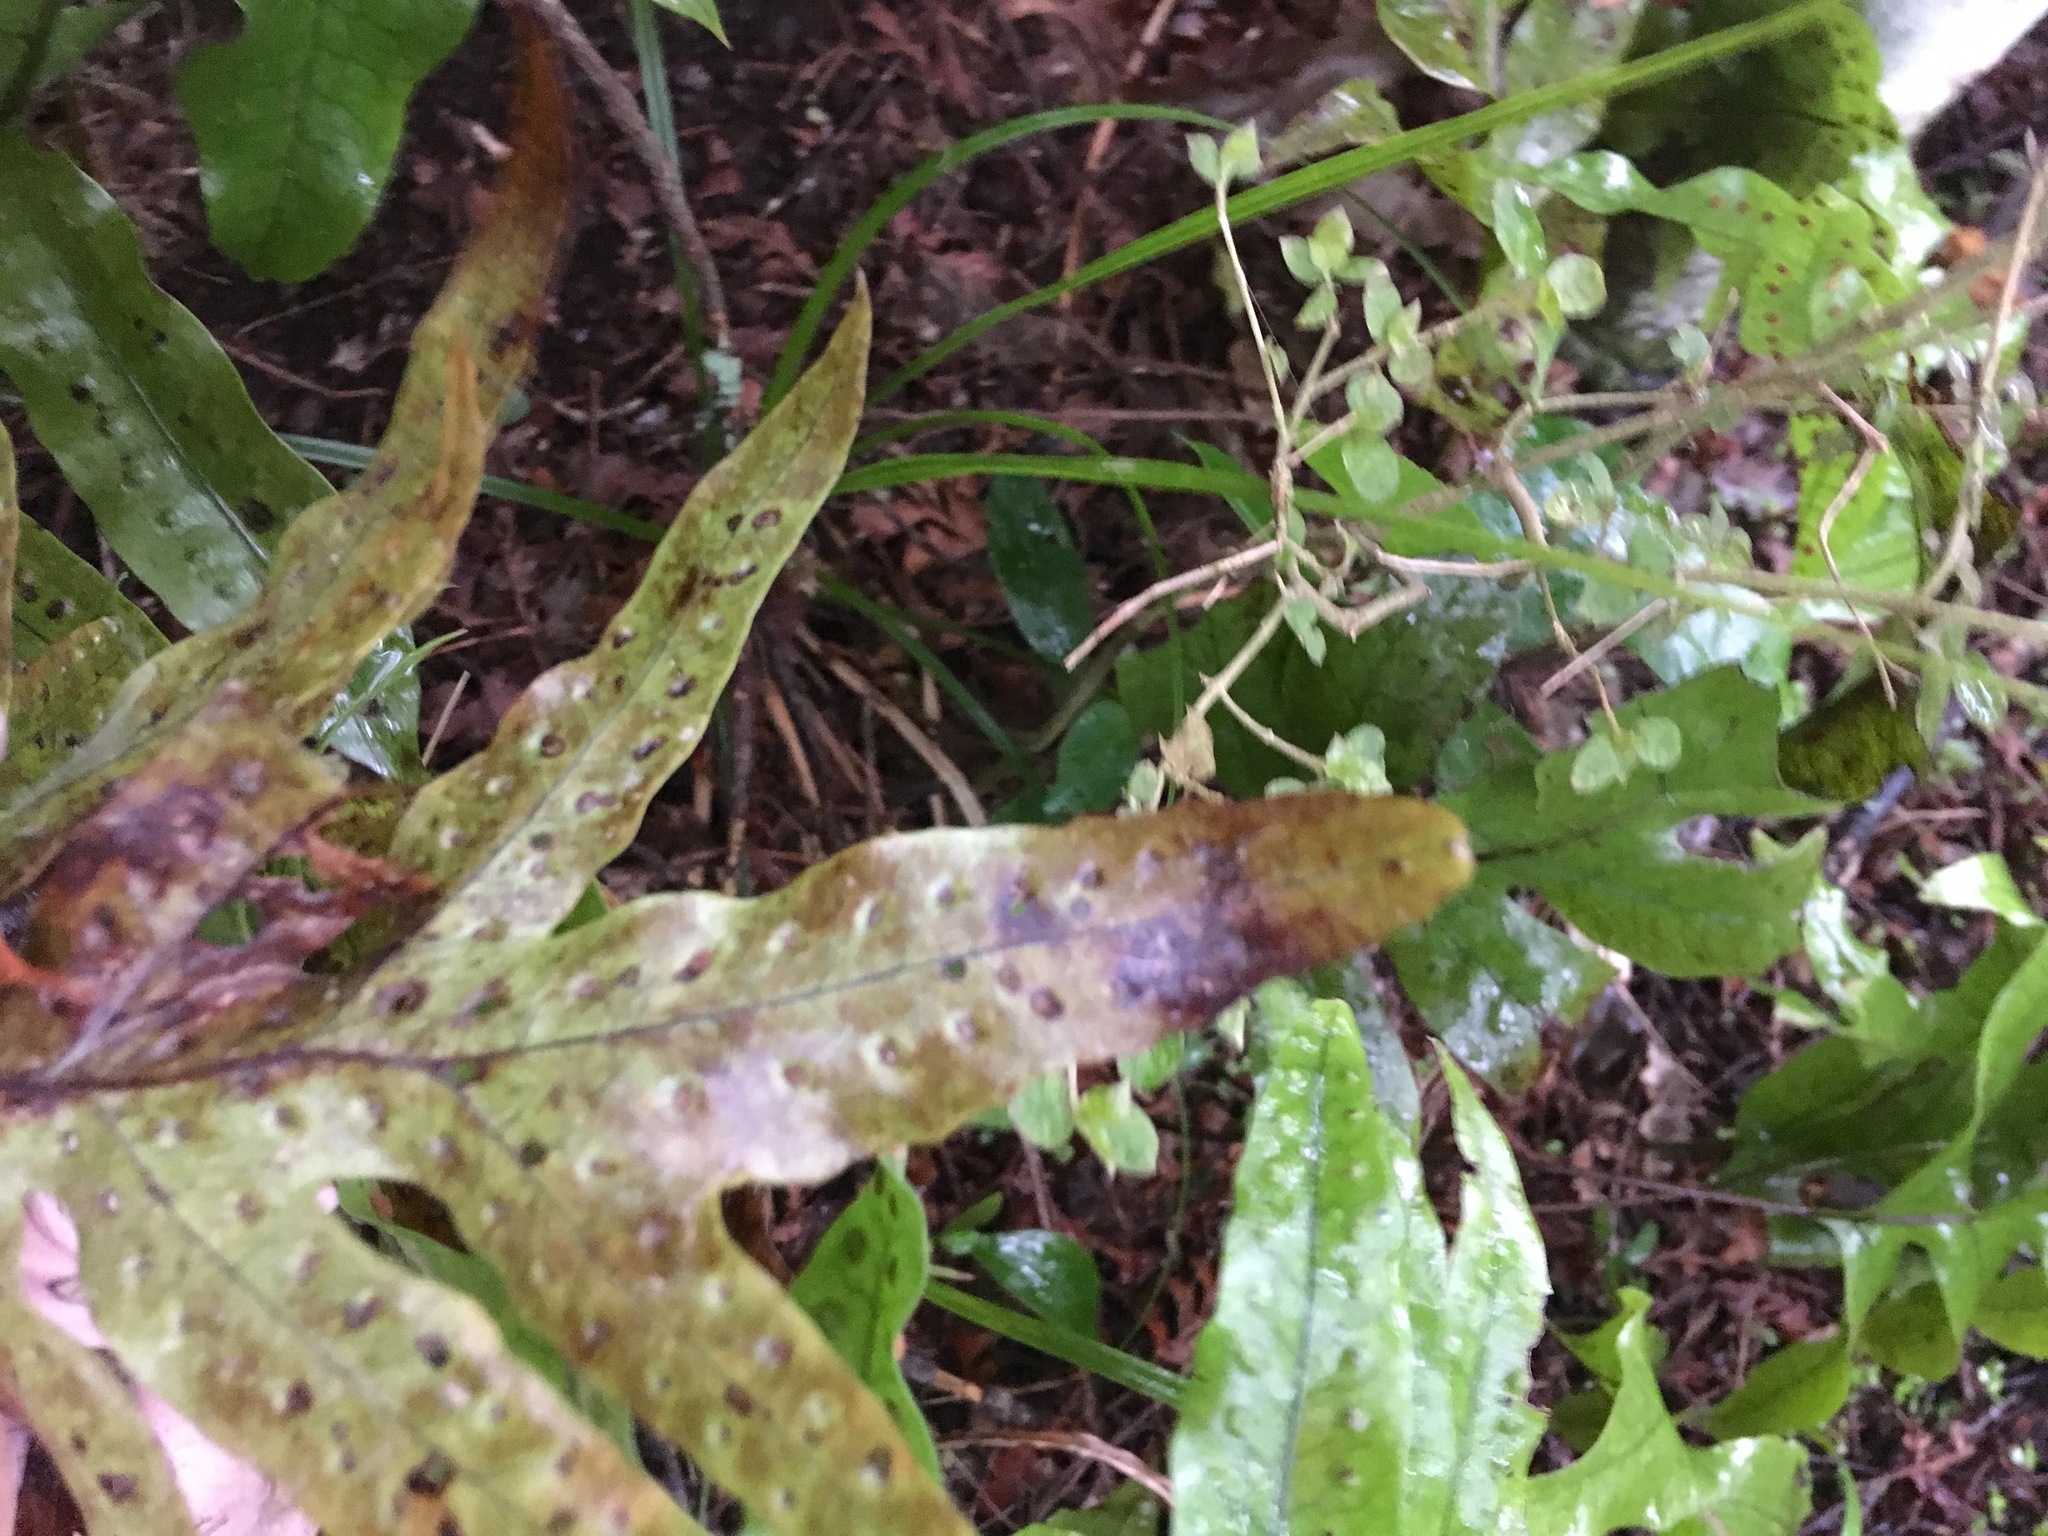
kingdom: Plantae
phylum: Tracheophyta
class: Polypodiopsida
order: Polypodiales
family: Polypodiaceae
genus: Lecanopteris
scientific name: Lecanopteris pustulata
